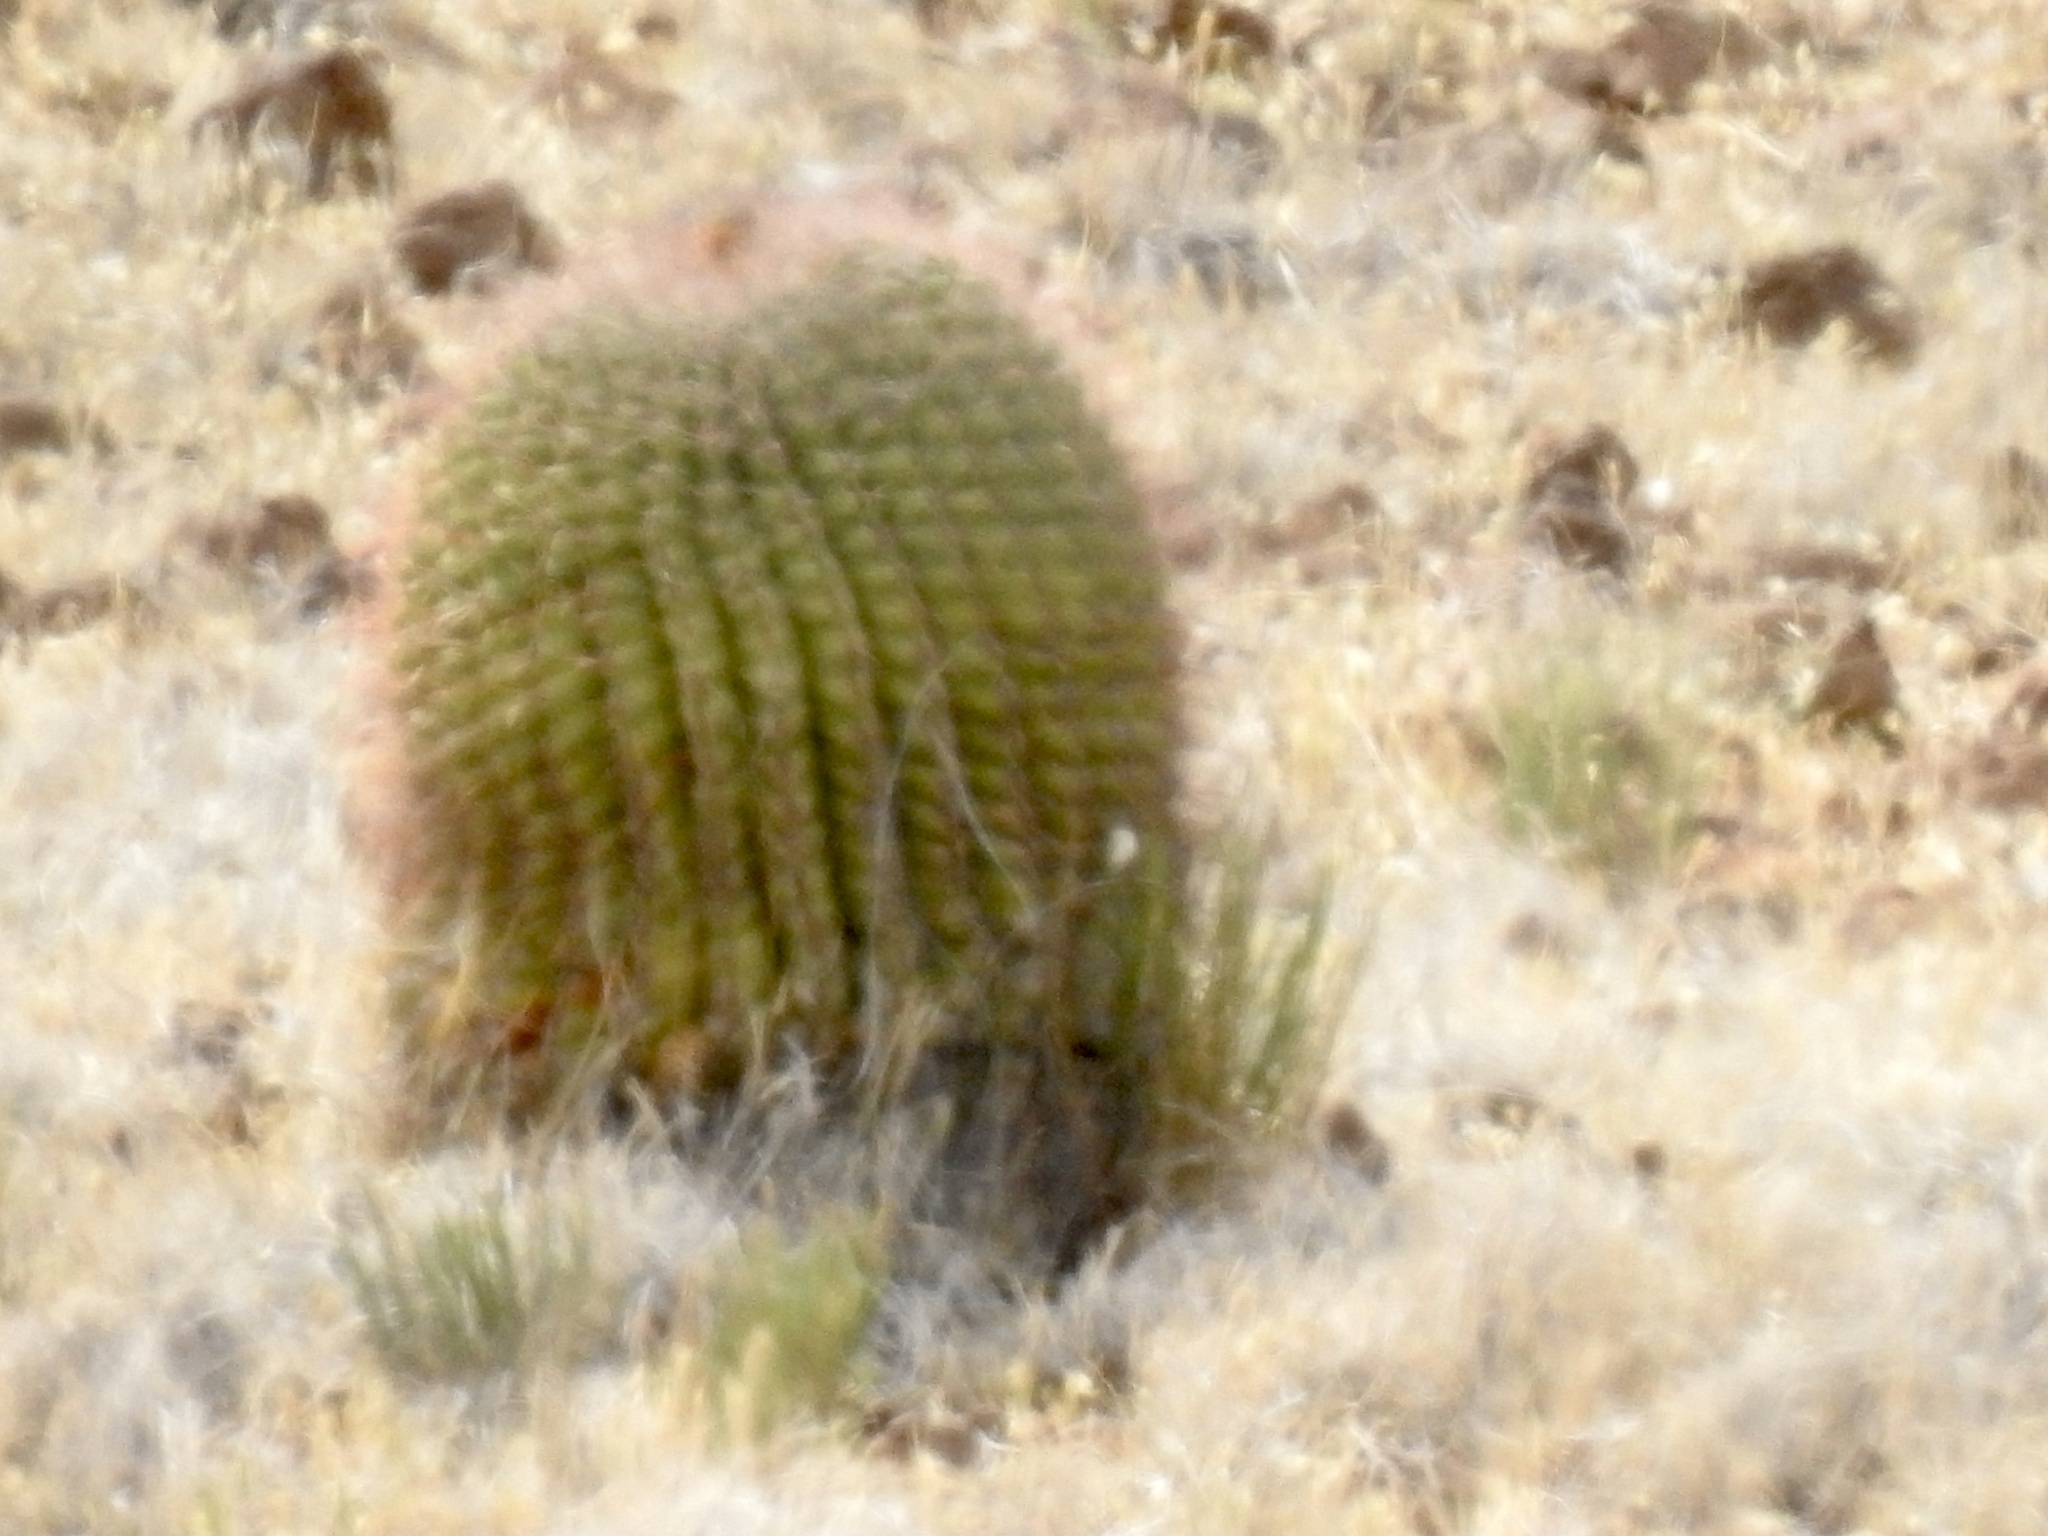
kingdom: Plantae
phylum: Tracheophyta
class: Magnoliopsida
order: Caryophyllales
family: Cactaceae
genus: Ferocactus
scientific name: Ferocactus wislizeni
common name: Candy barrel cactus
